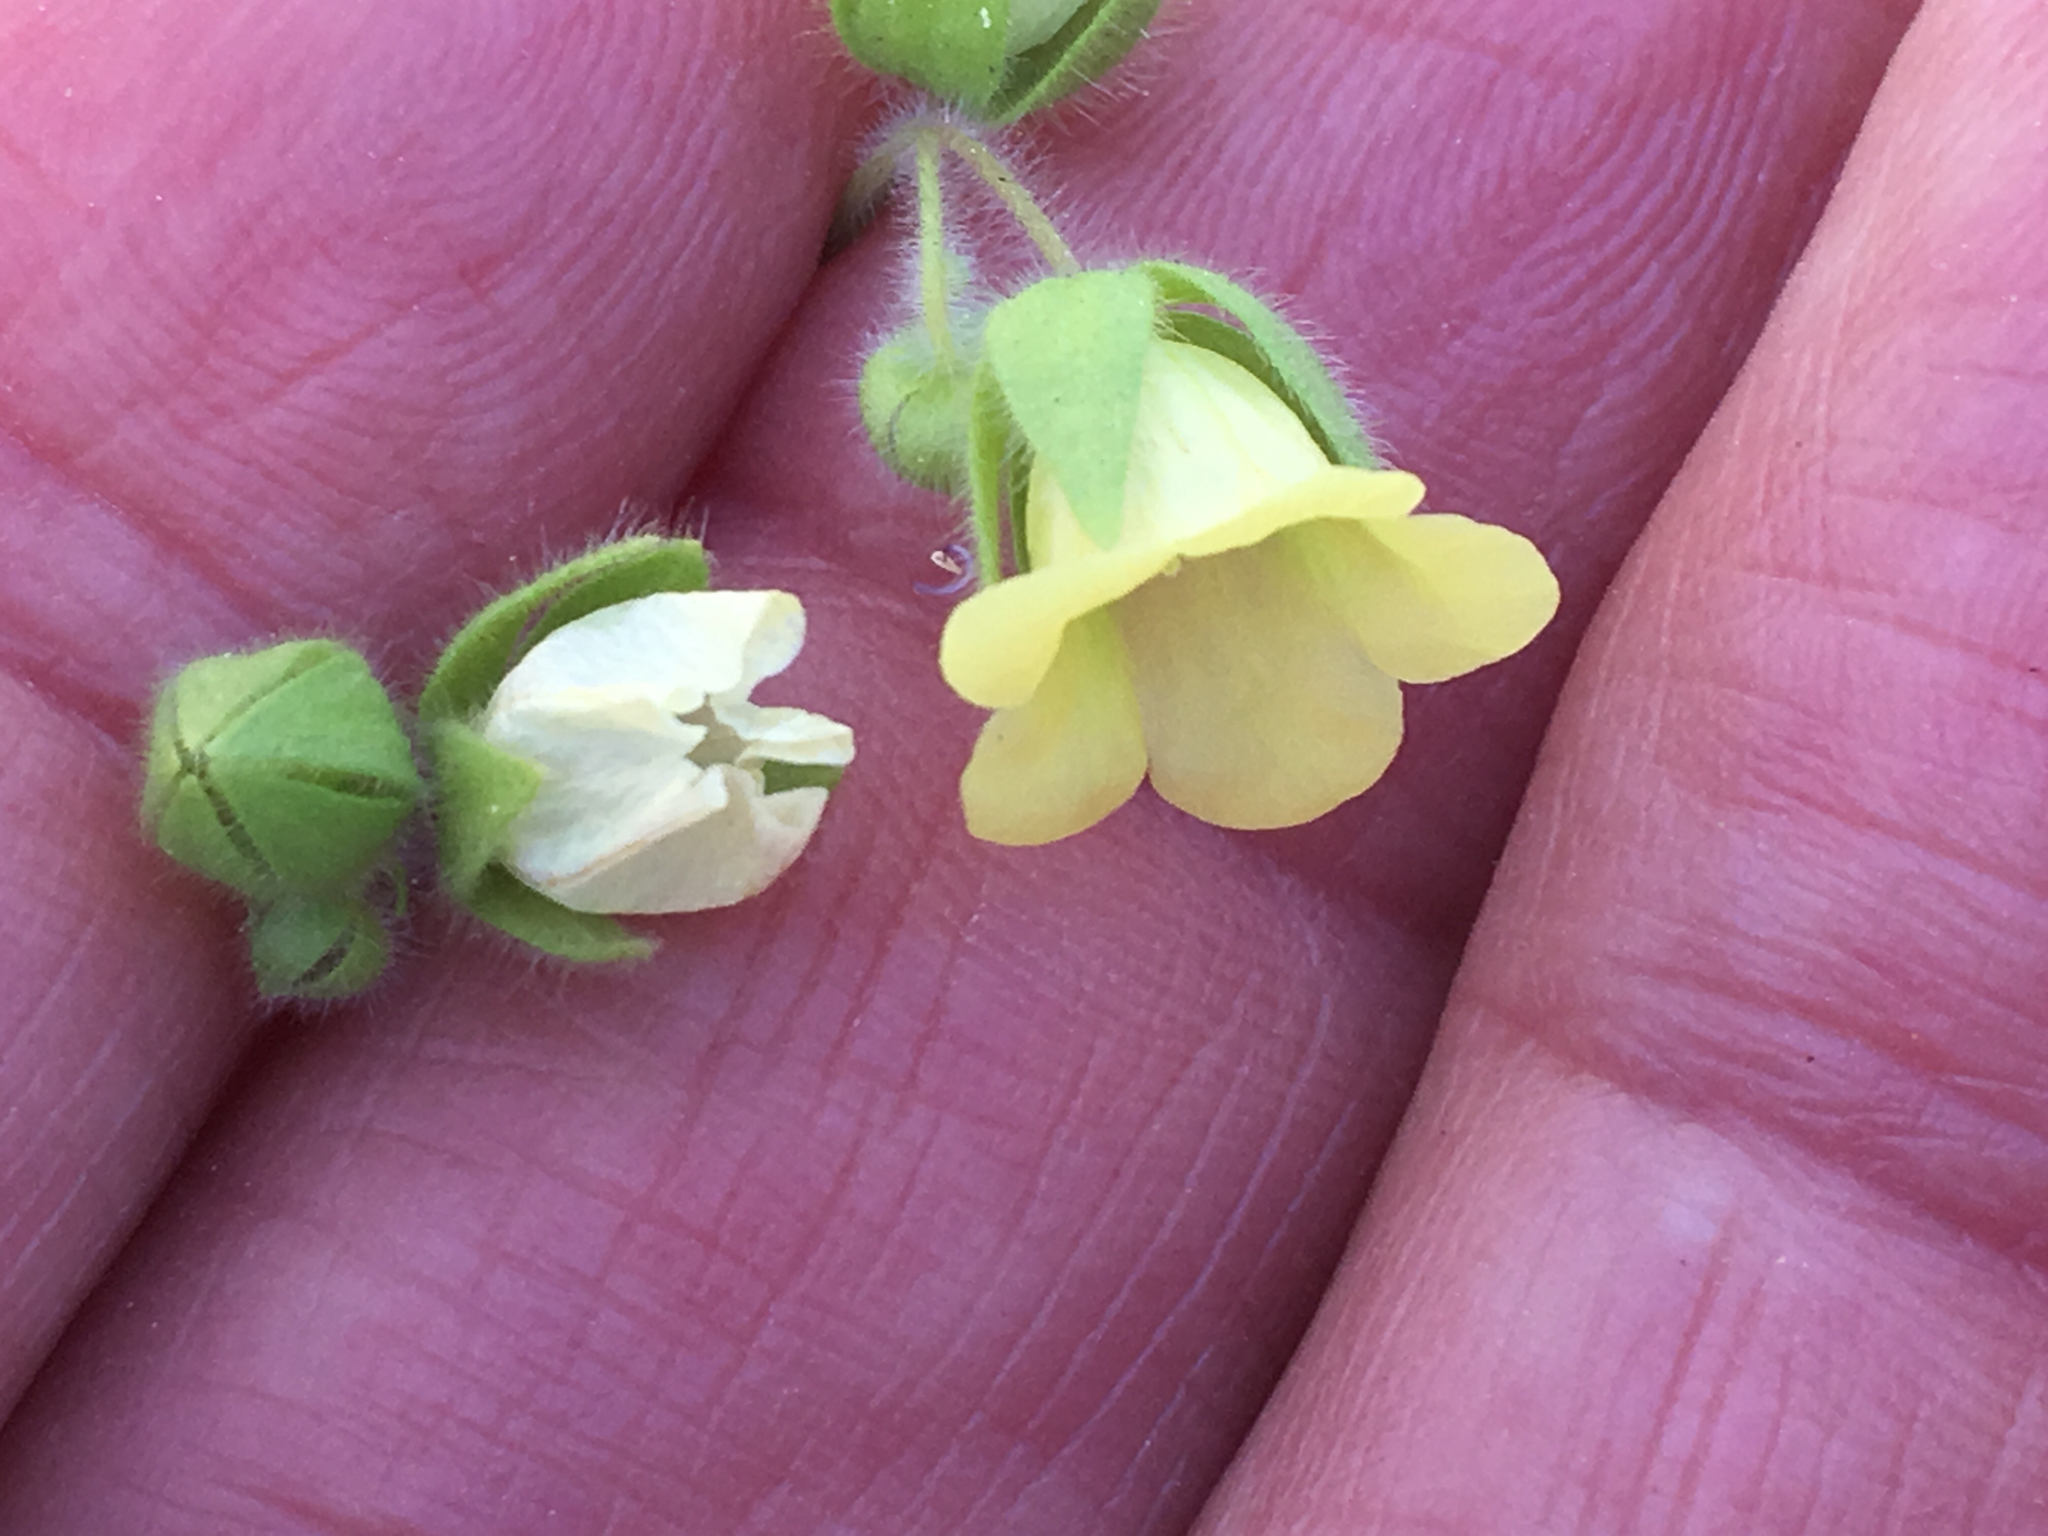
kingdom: Plantae
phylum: Tracheophyta
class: Magnoliopsida
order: Boraginales
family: Hydrophyllaceae
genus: Emmenanthe
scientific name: Emmenanthe penduliflora
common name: Whispering-bells
